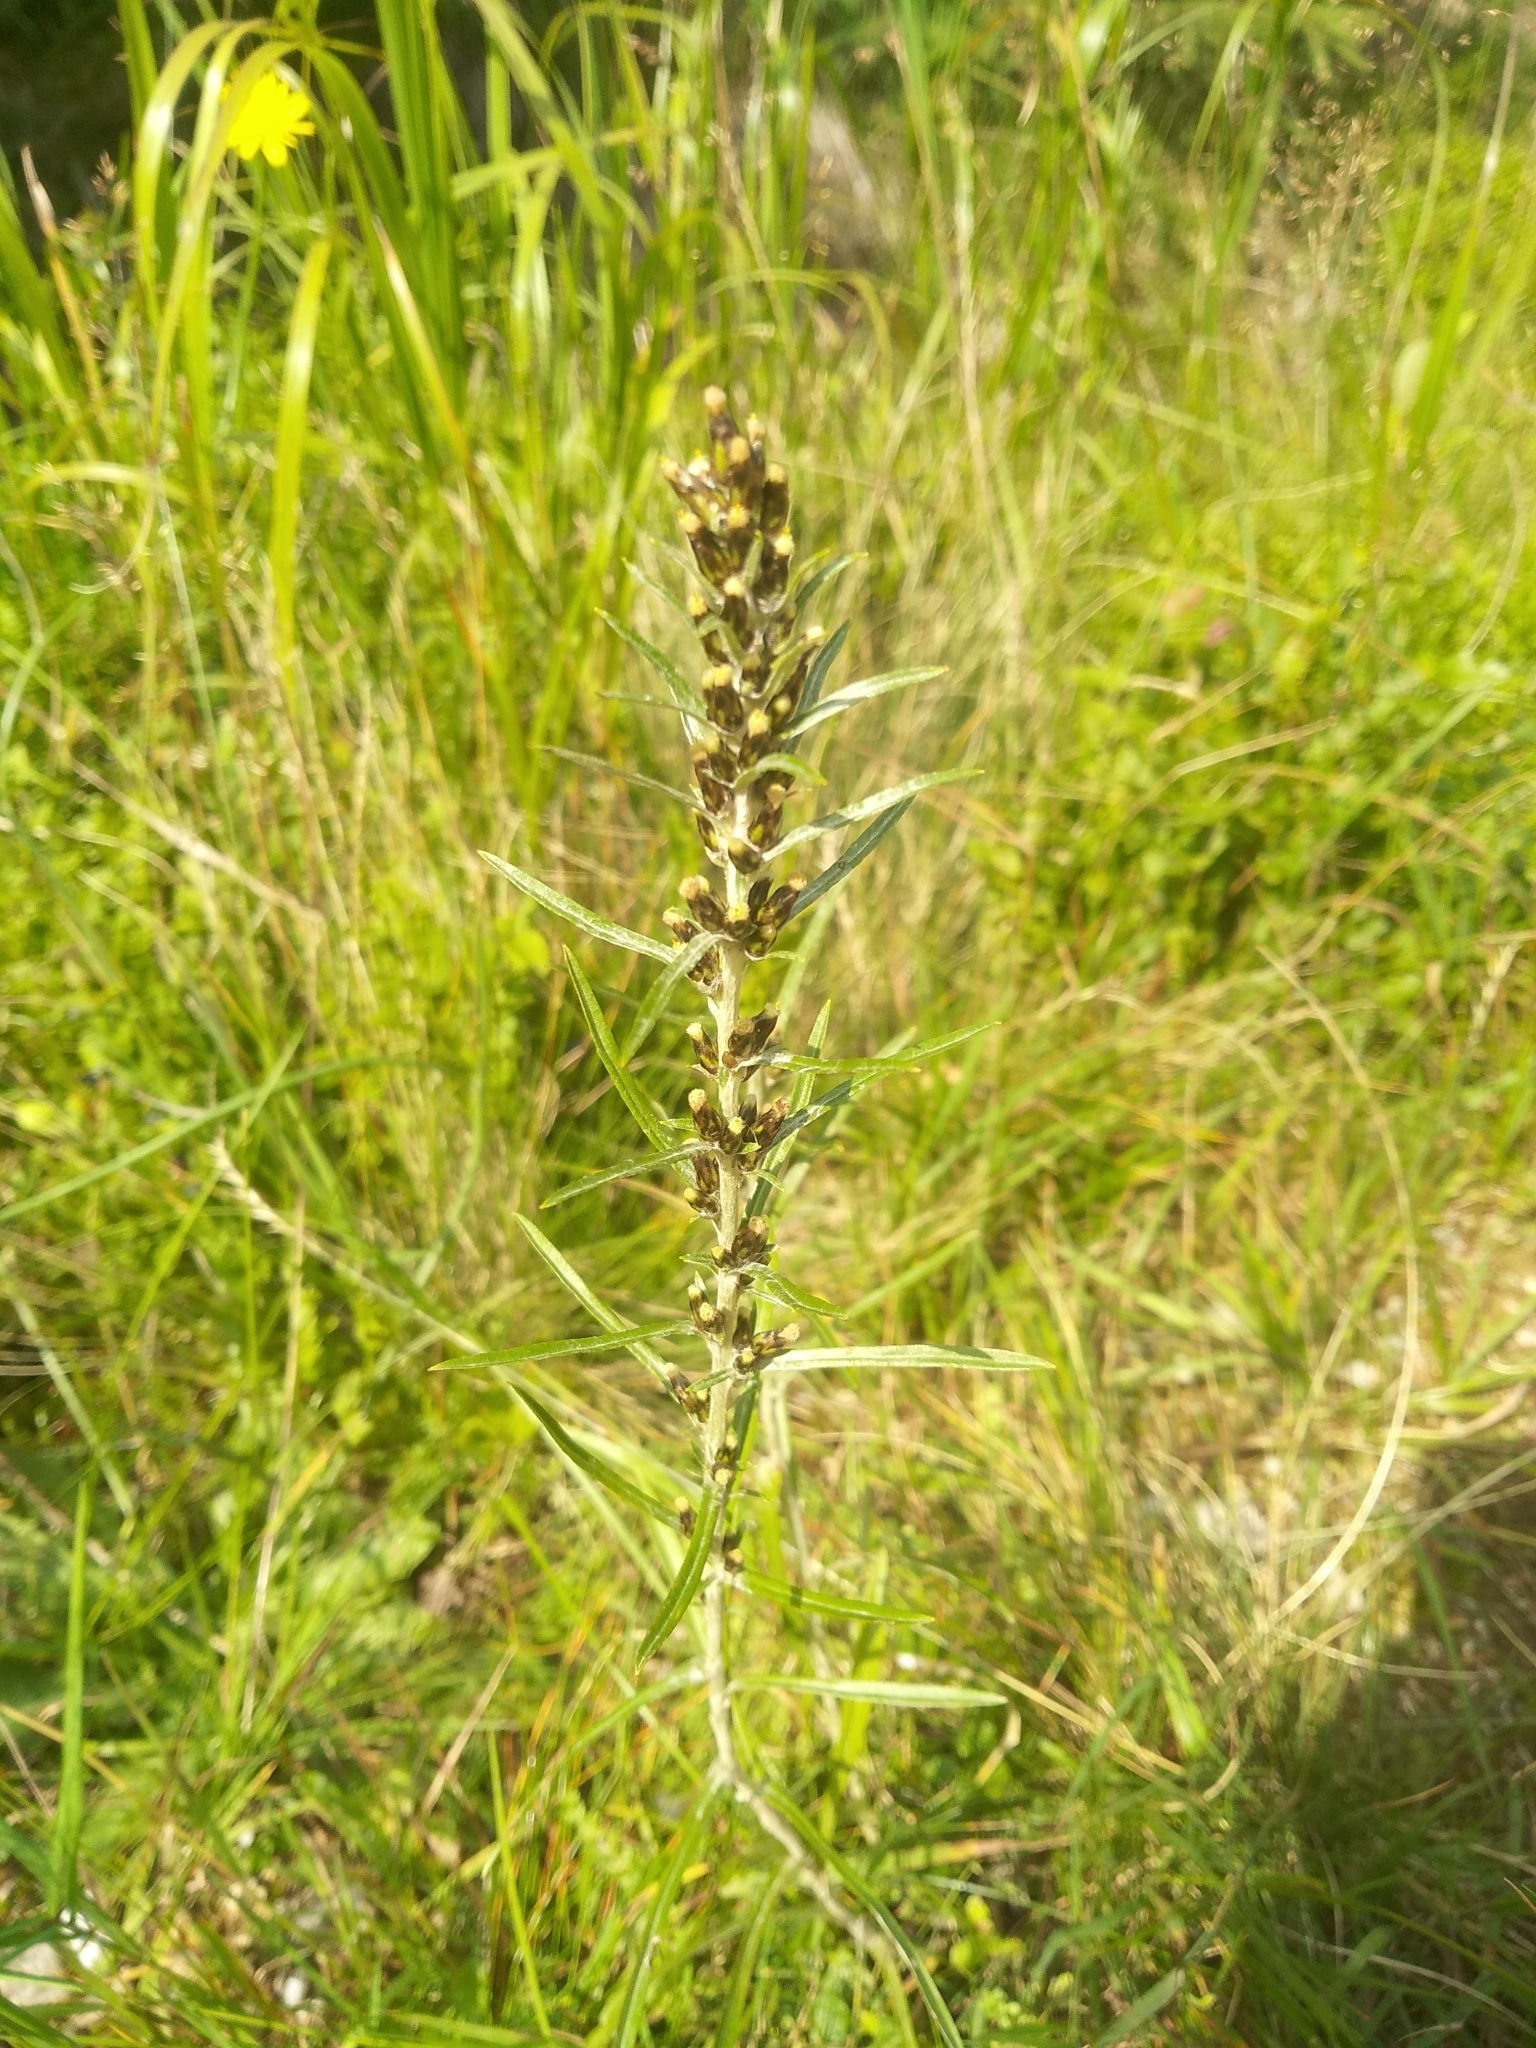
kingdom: Plantae
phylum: Tracheophyta
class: Magnoliopsida
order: Asterales
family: Asteraceae
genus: Omalotheca
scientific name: Omalotheca sylvatica
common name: Heath cudweed
